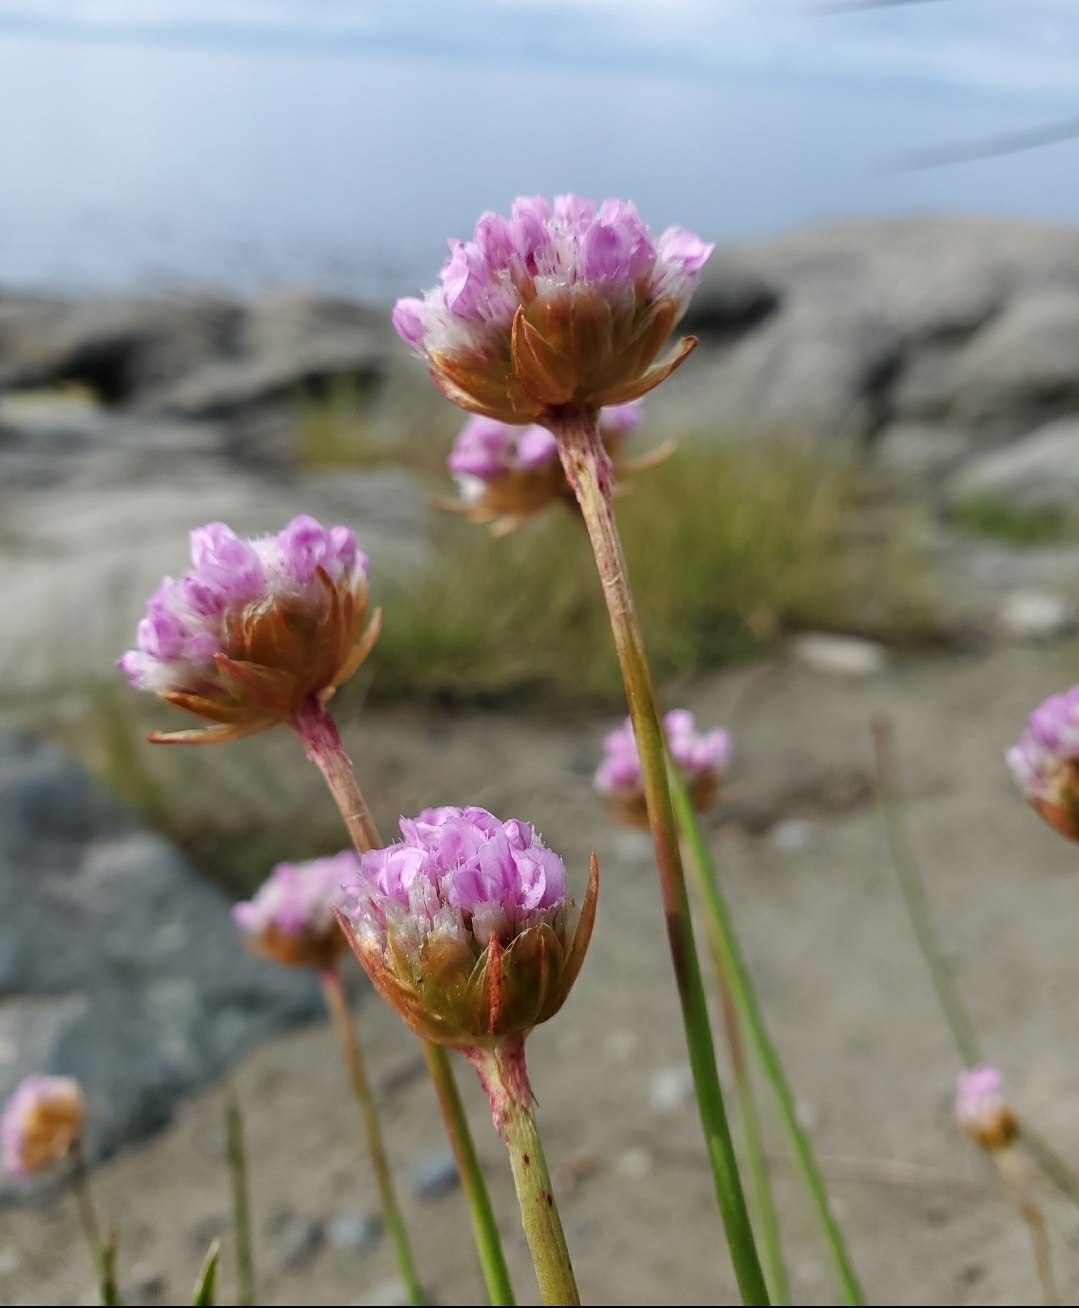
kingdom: Plantae
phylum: Tracheophyta
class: Magnoliopsida
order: Caryophyllales
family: Plumbaginaceae
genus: Armeria
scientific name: Armeria maritima
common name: Thrift
